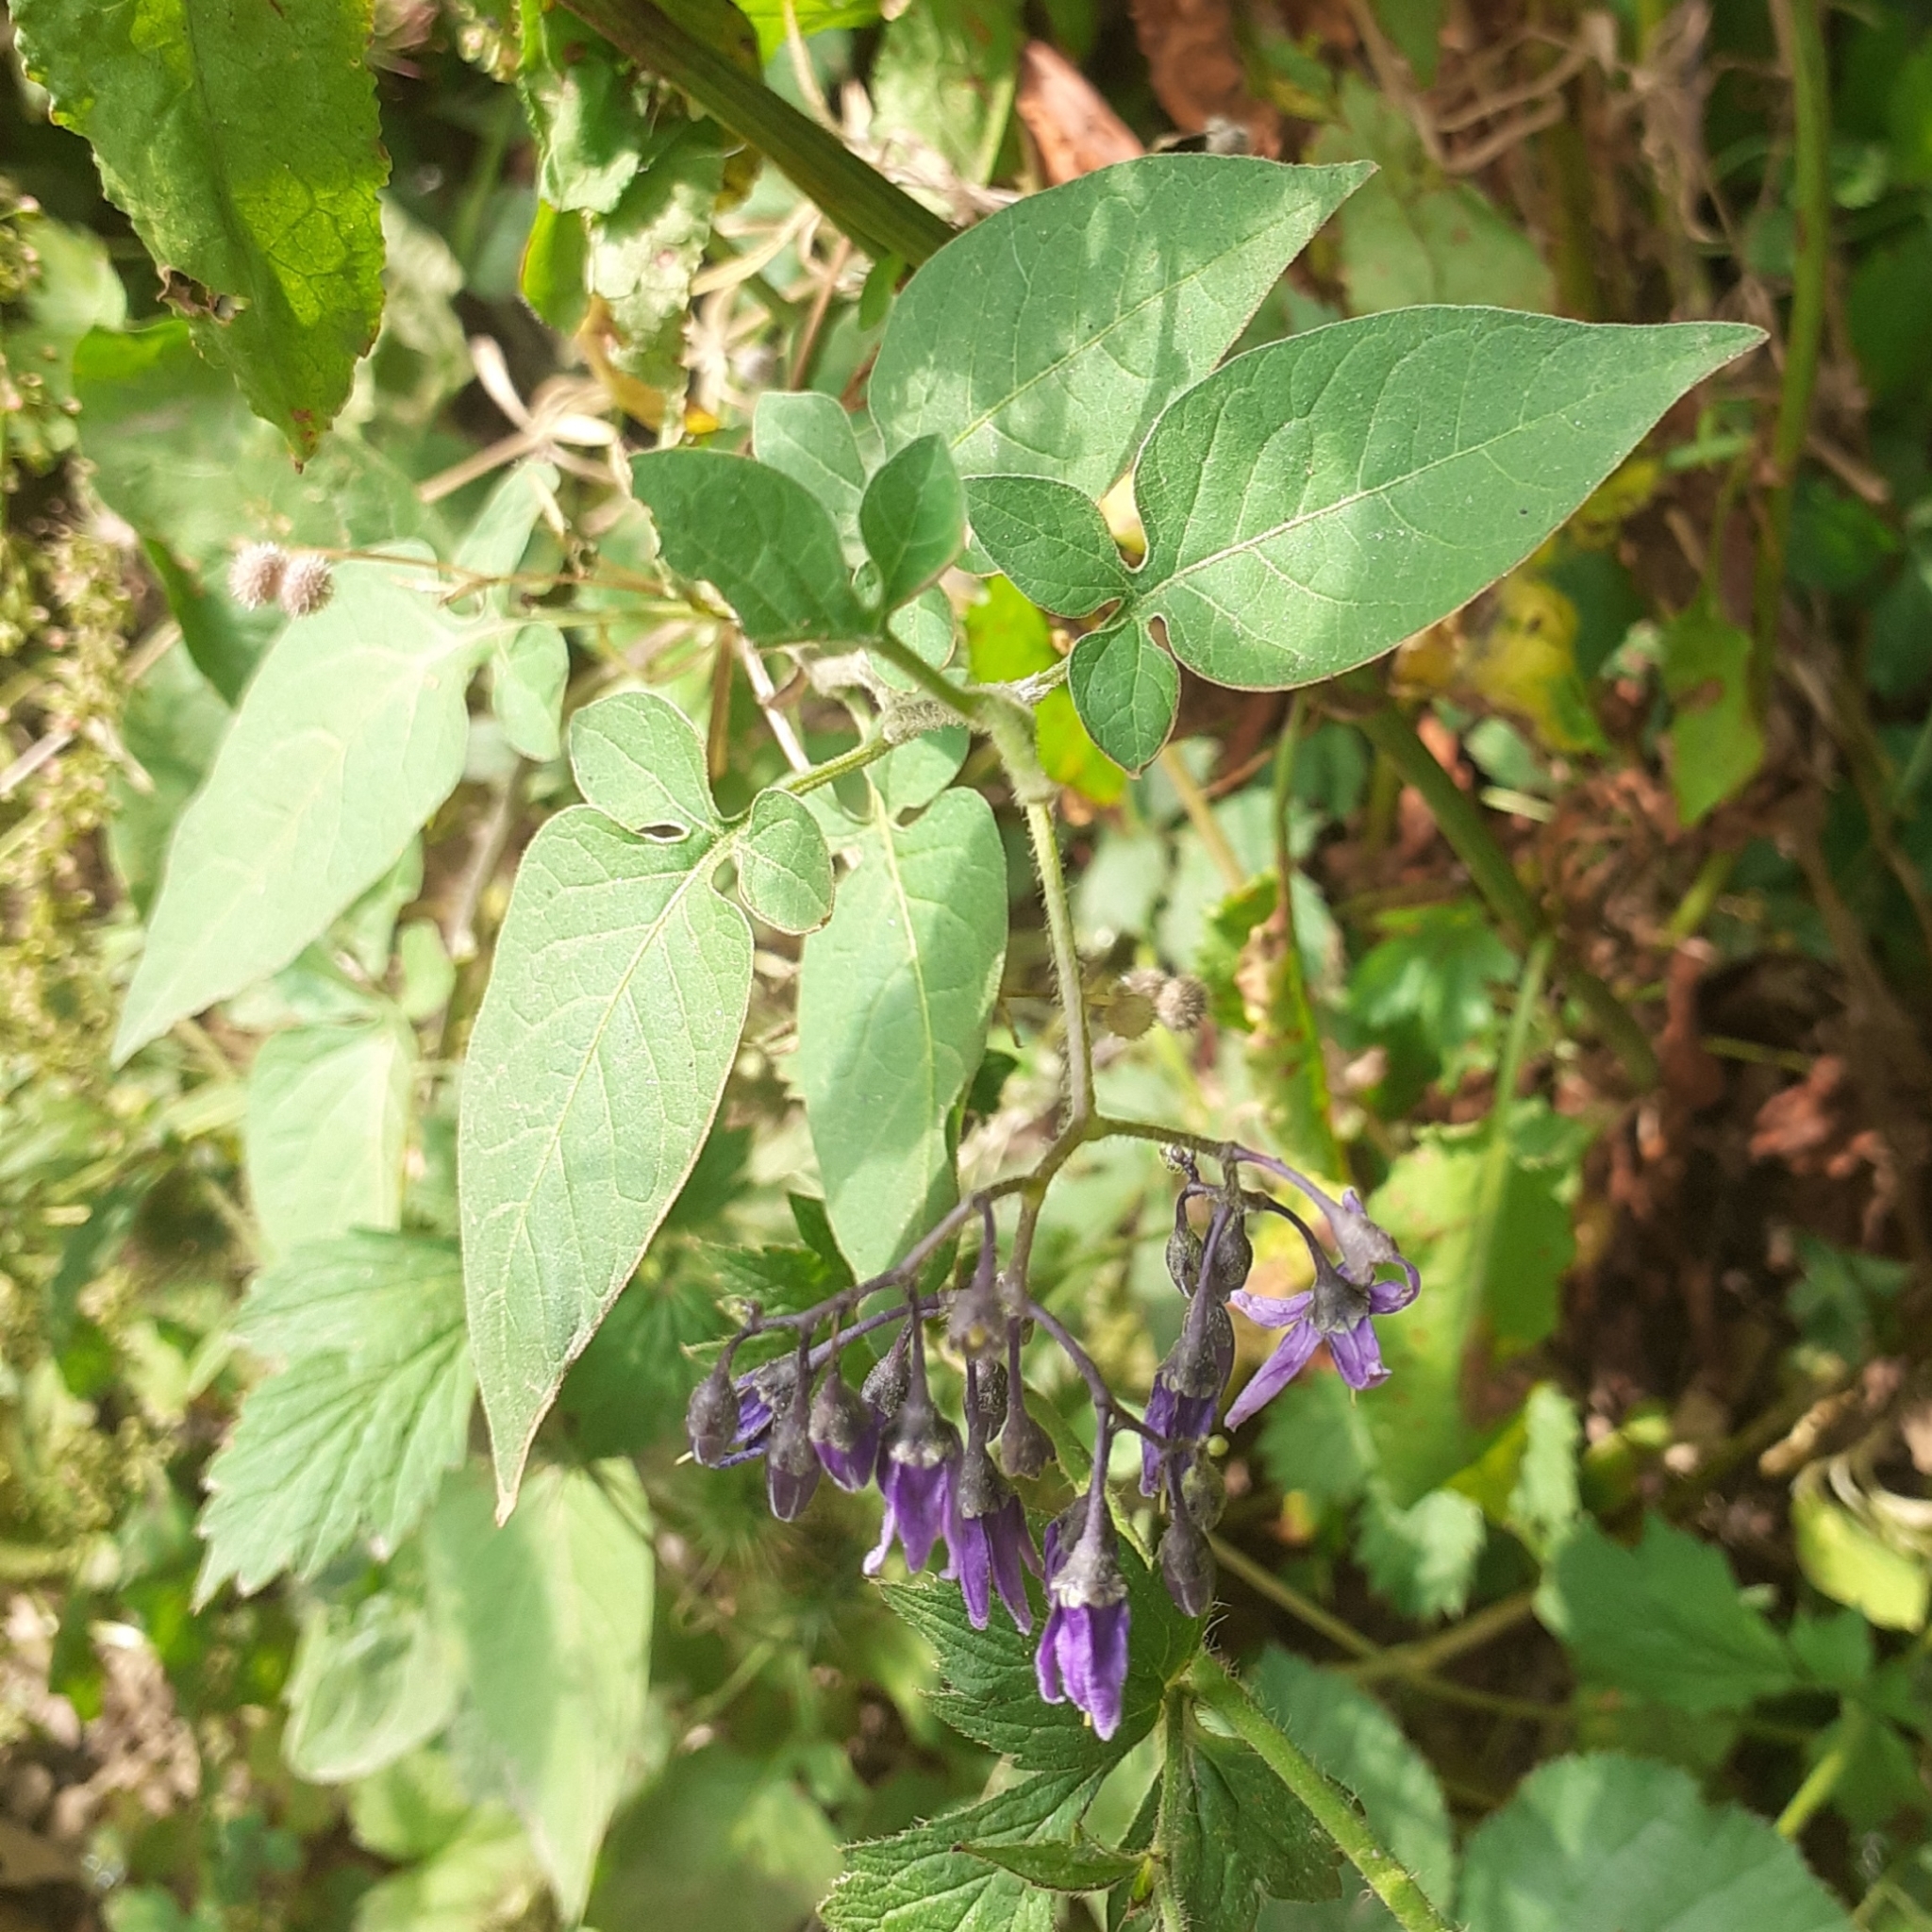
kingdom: Plantae
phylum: Tracheophyta
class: Magnoliopsida
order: Solanales
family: Solanaceae
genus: Solanum
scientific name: Solanum dulcamara
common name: Climbing nightshade
